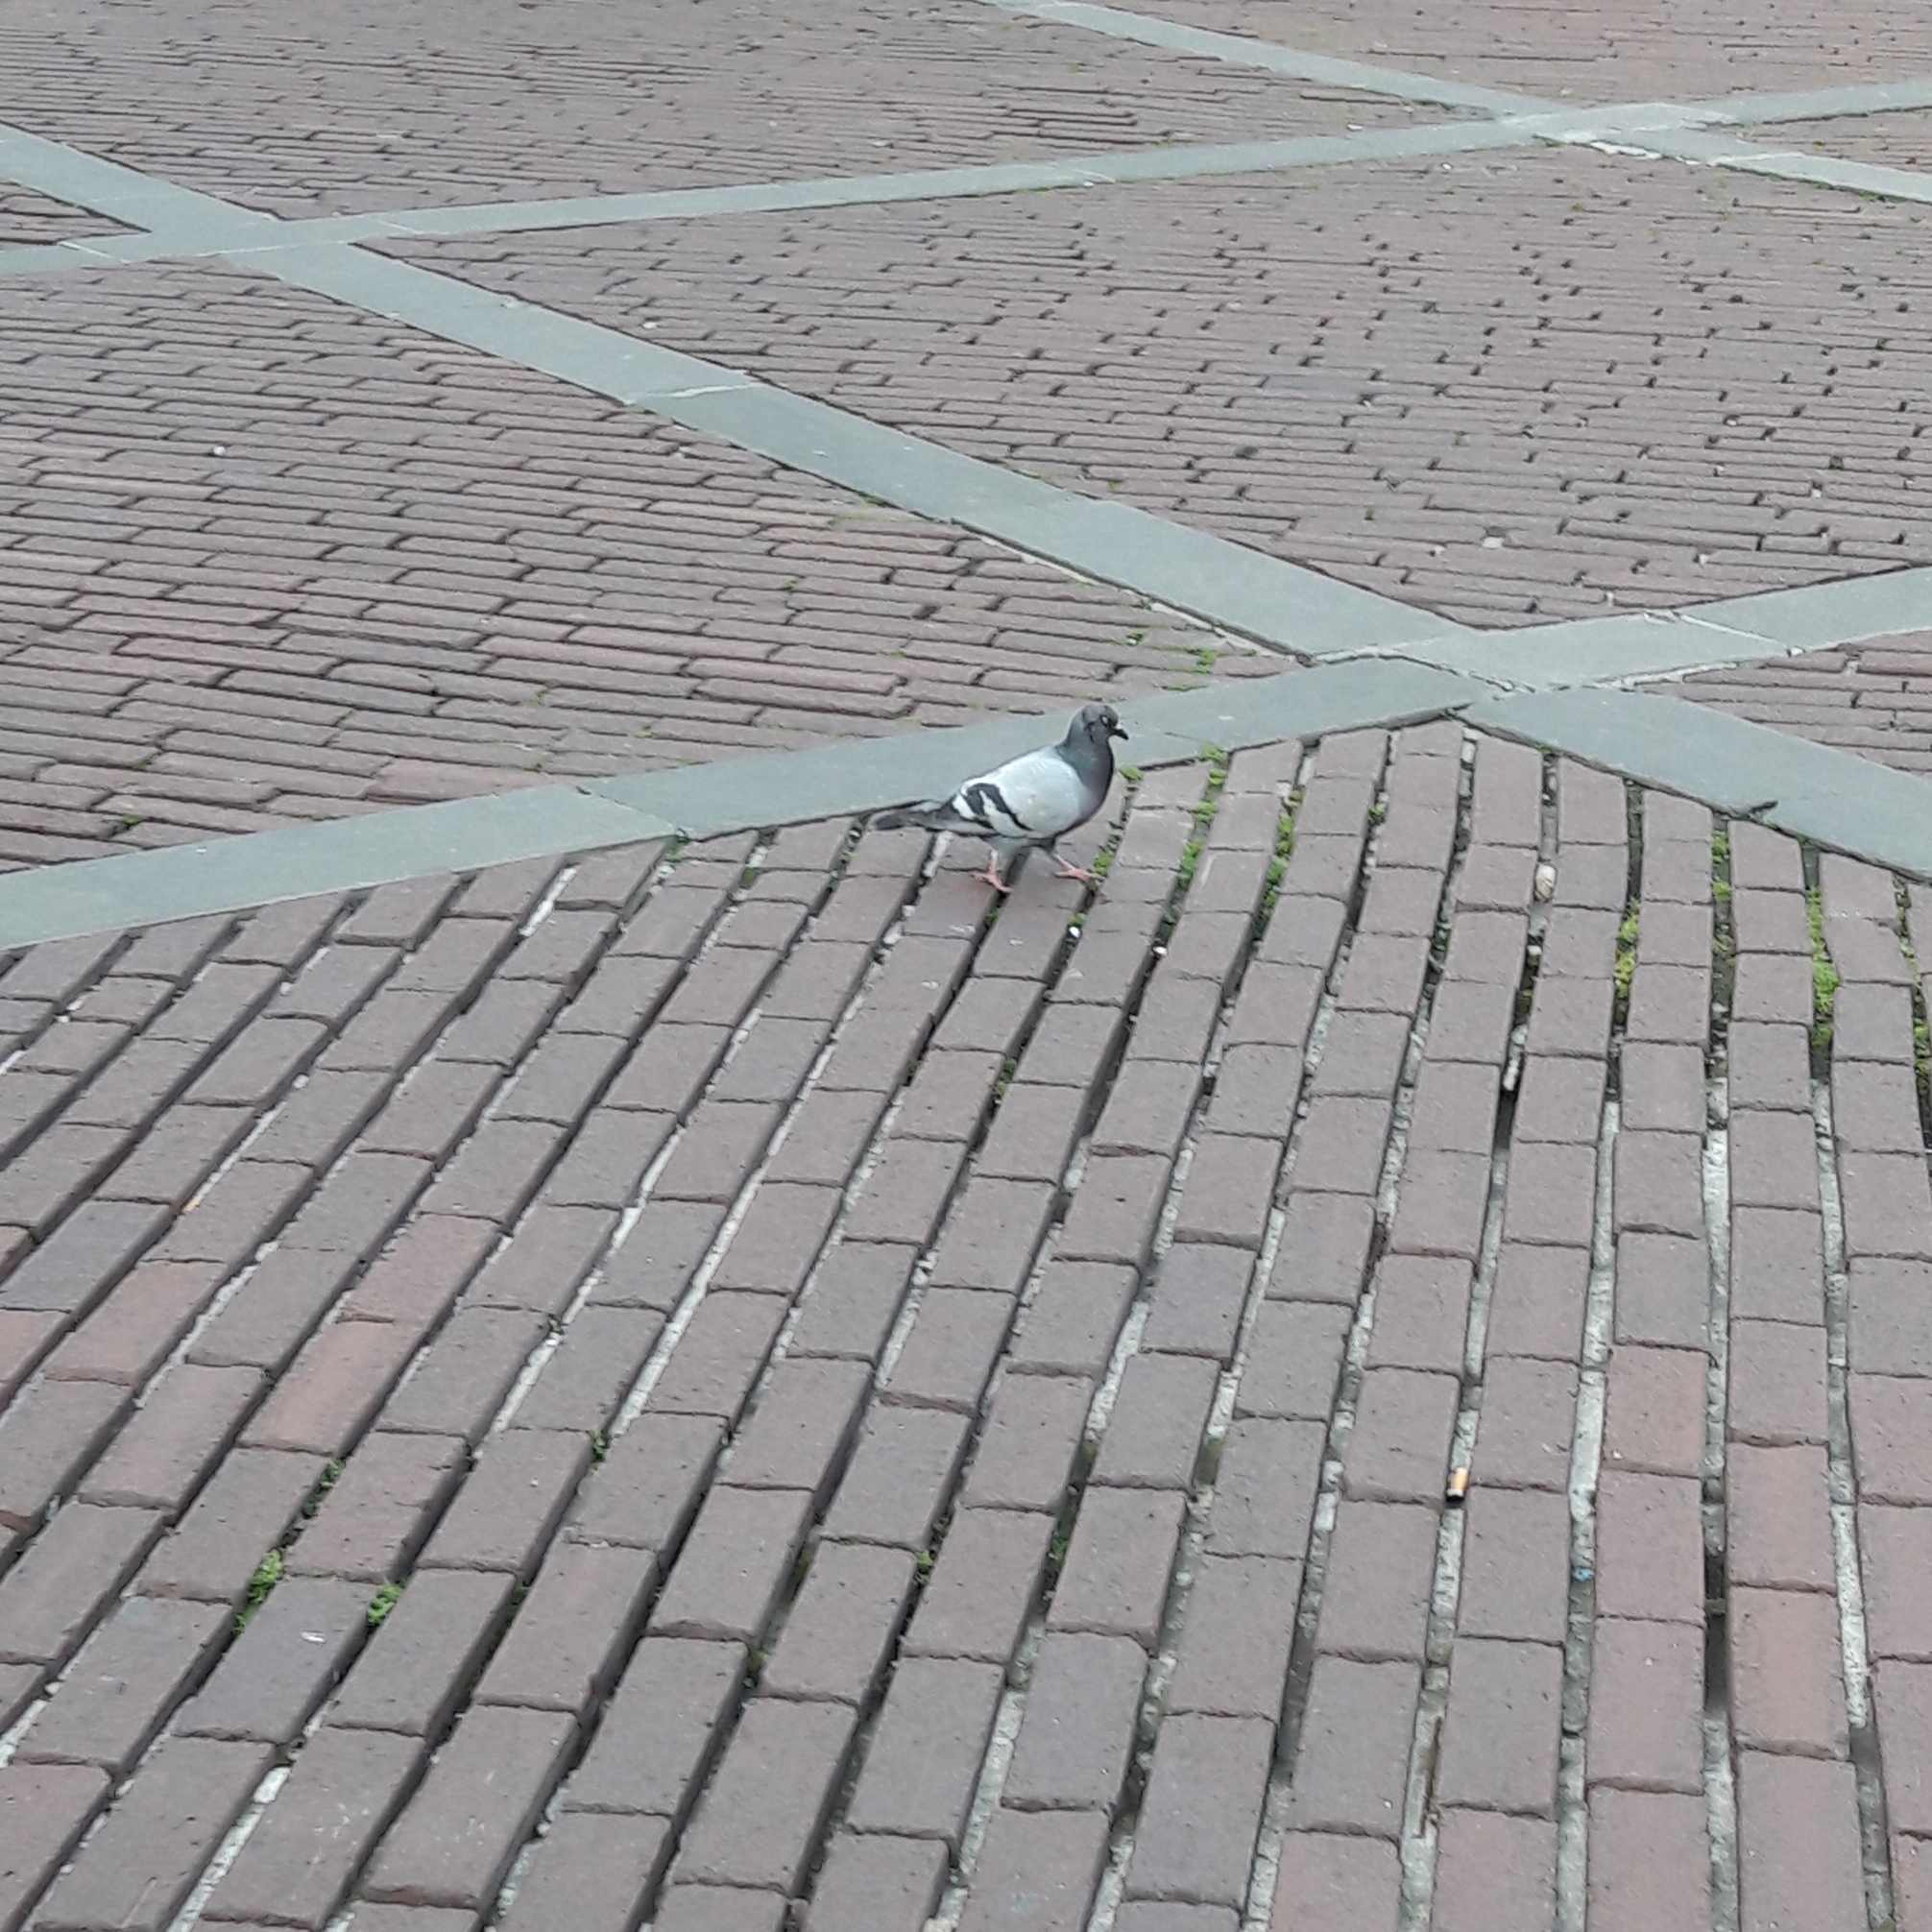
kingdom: Animalia
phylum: Chordata
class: Aves
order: Columbiformes
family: Columbidae
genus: Columba
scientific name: Columba livia
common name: Rock pigeon
